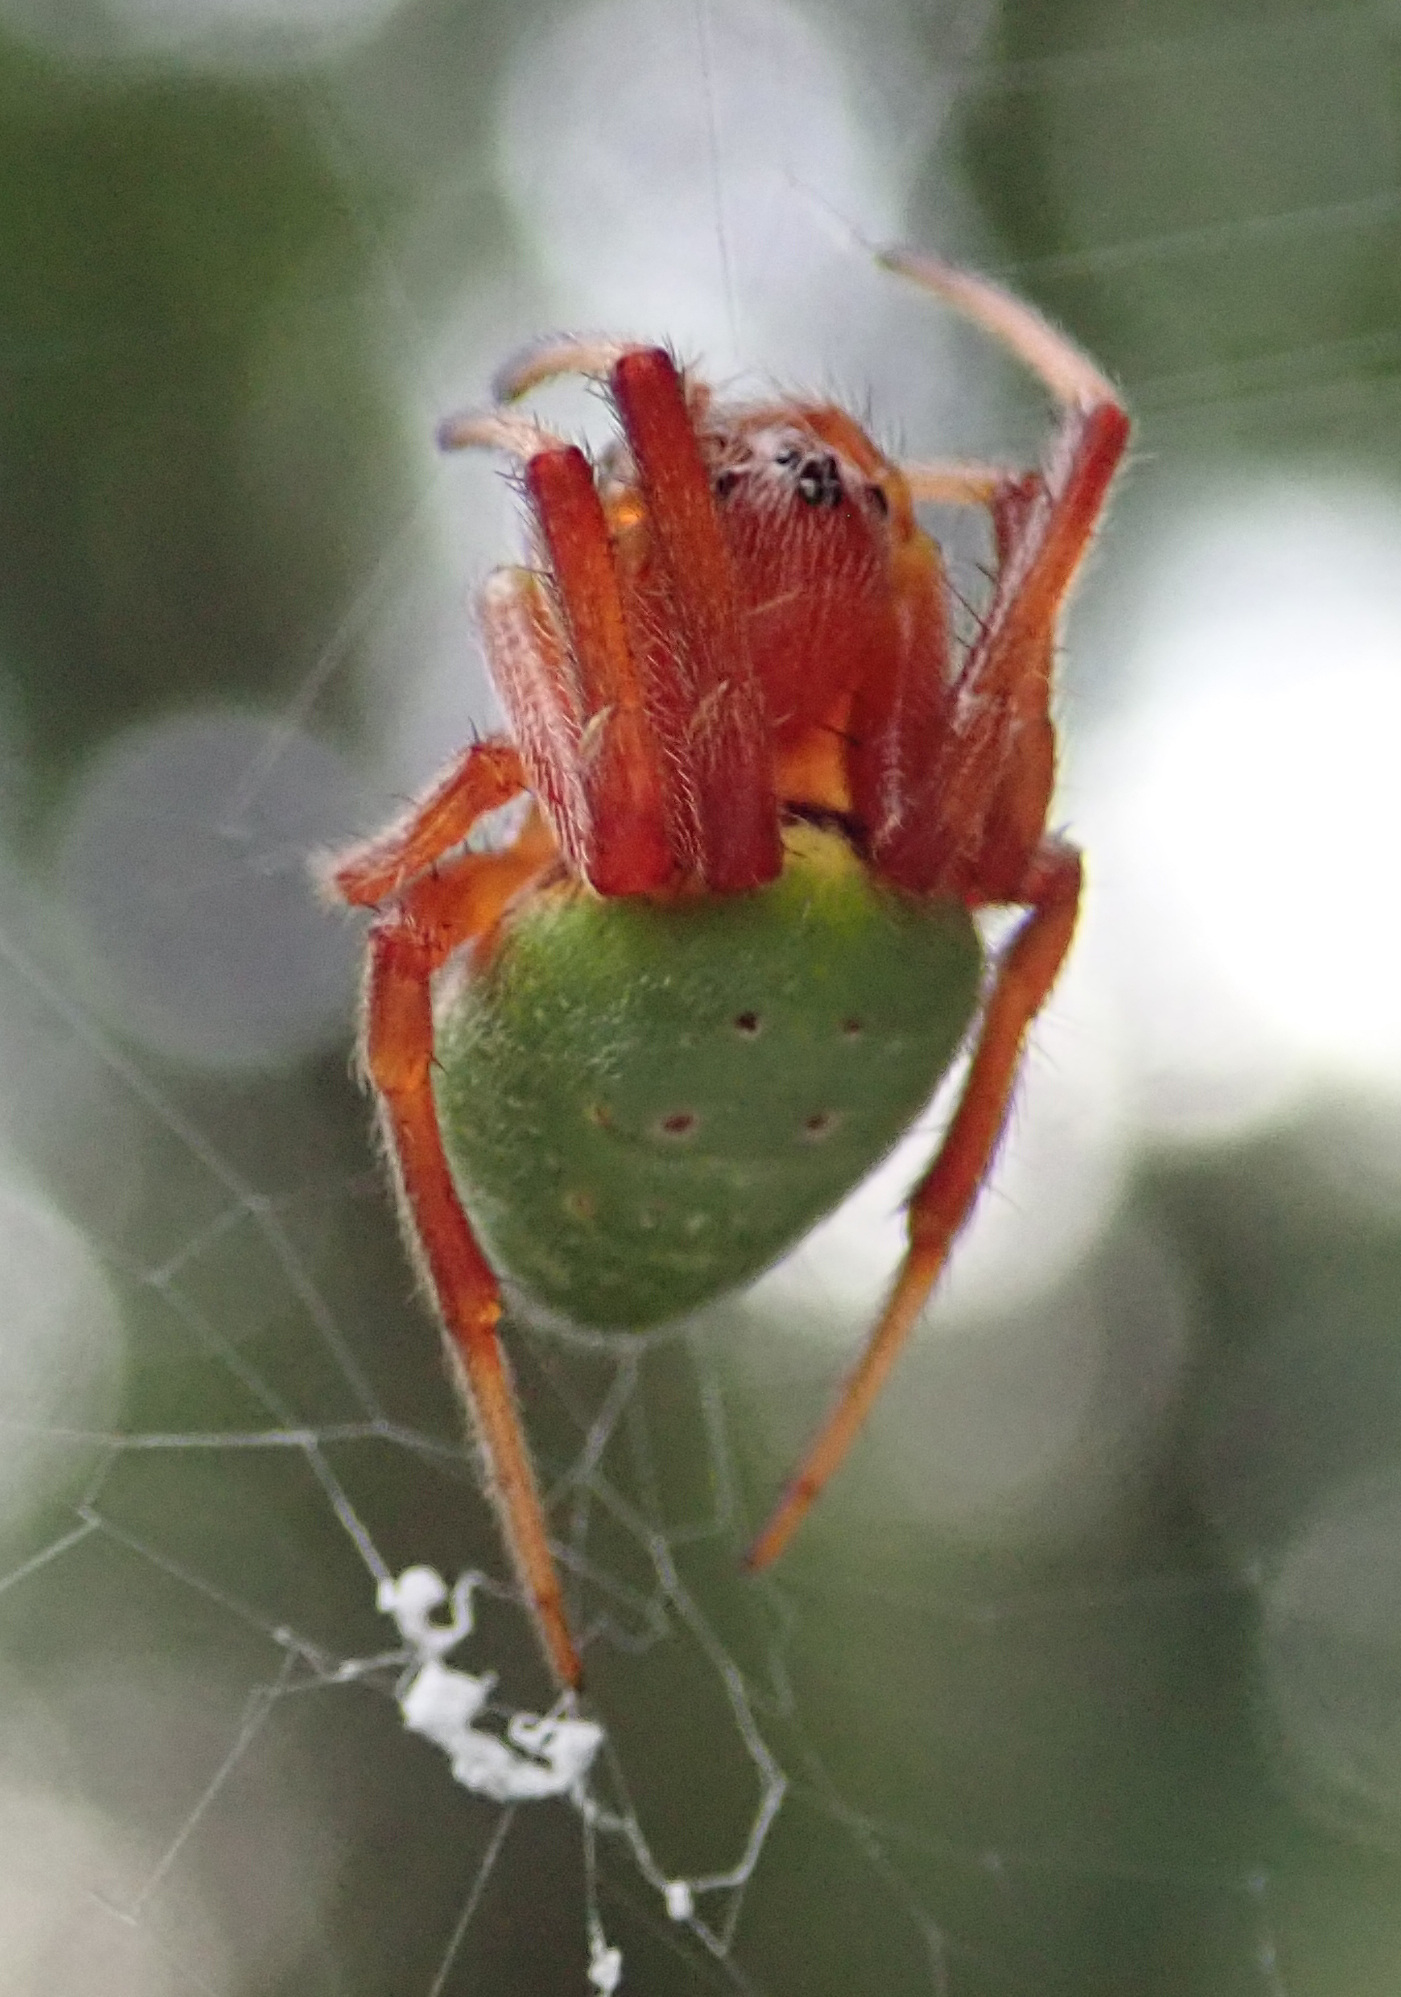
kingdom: Animalia
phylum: Arthropoda
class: Arachnida
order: Araneae
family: Araneidae
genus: Araneus
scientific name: Araneus apricus
